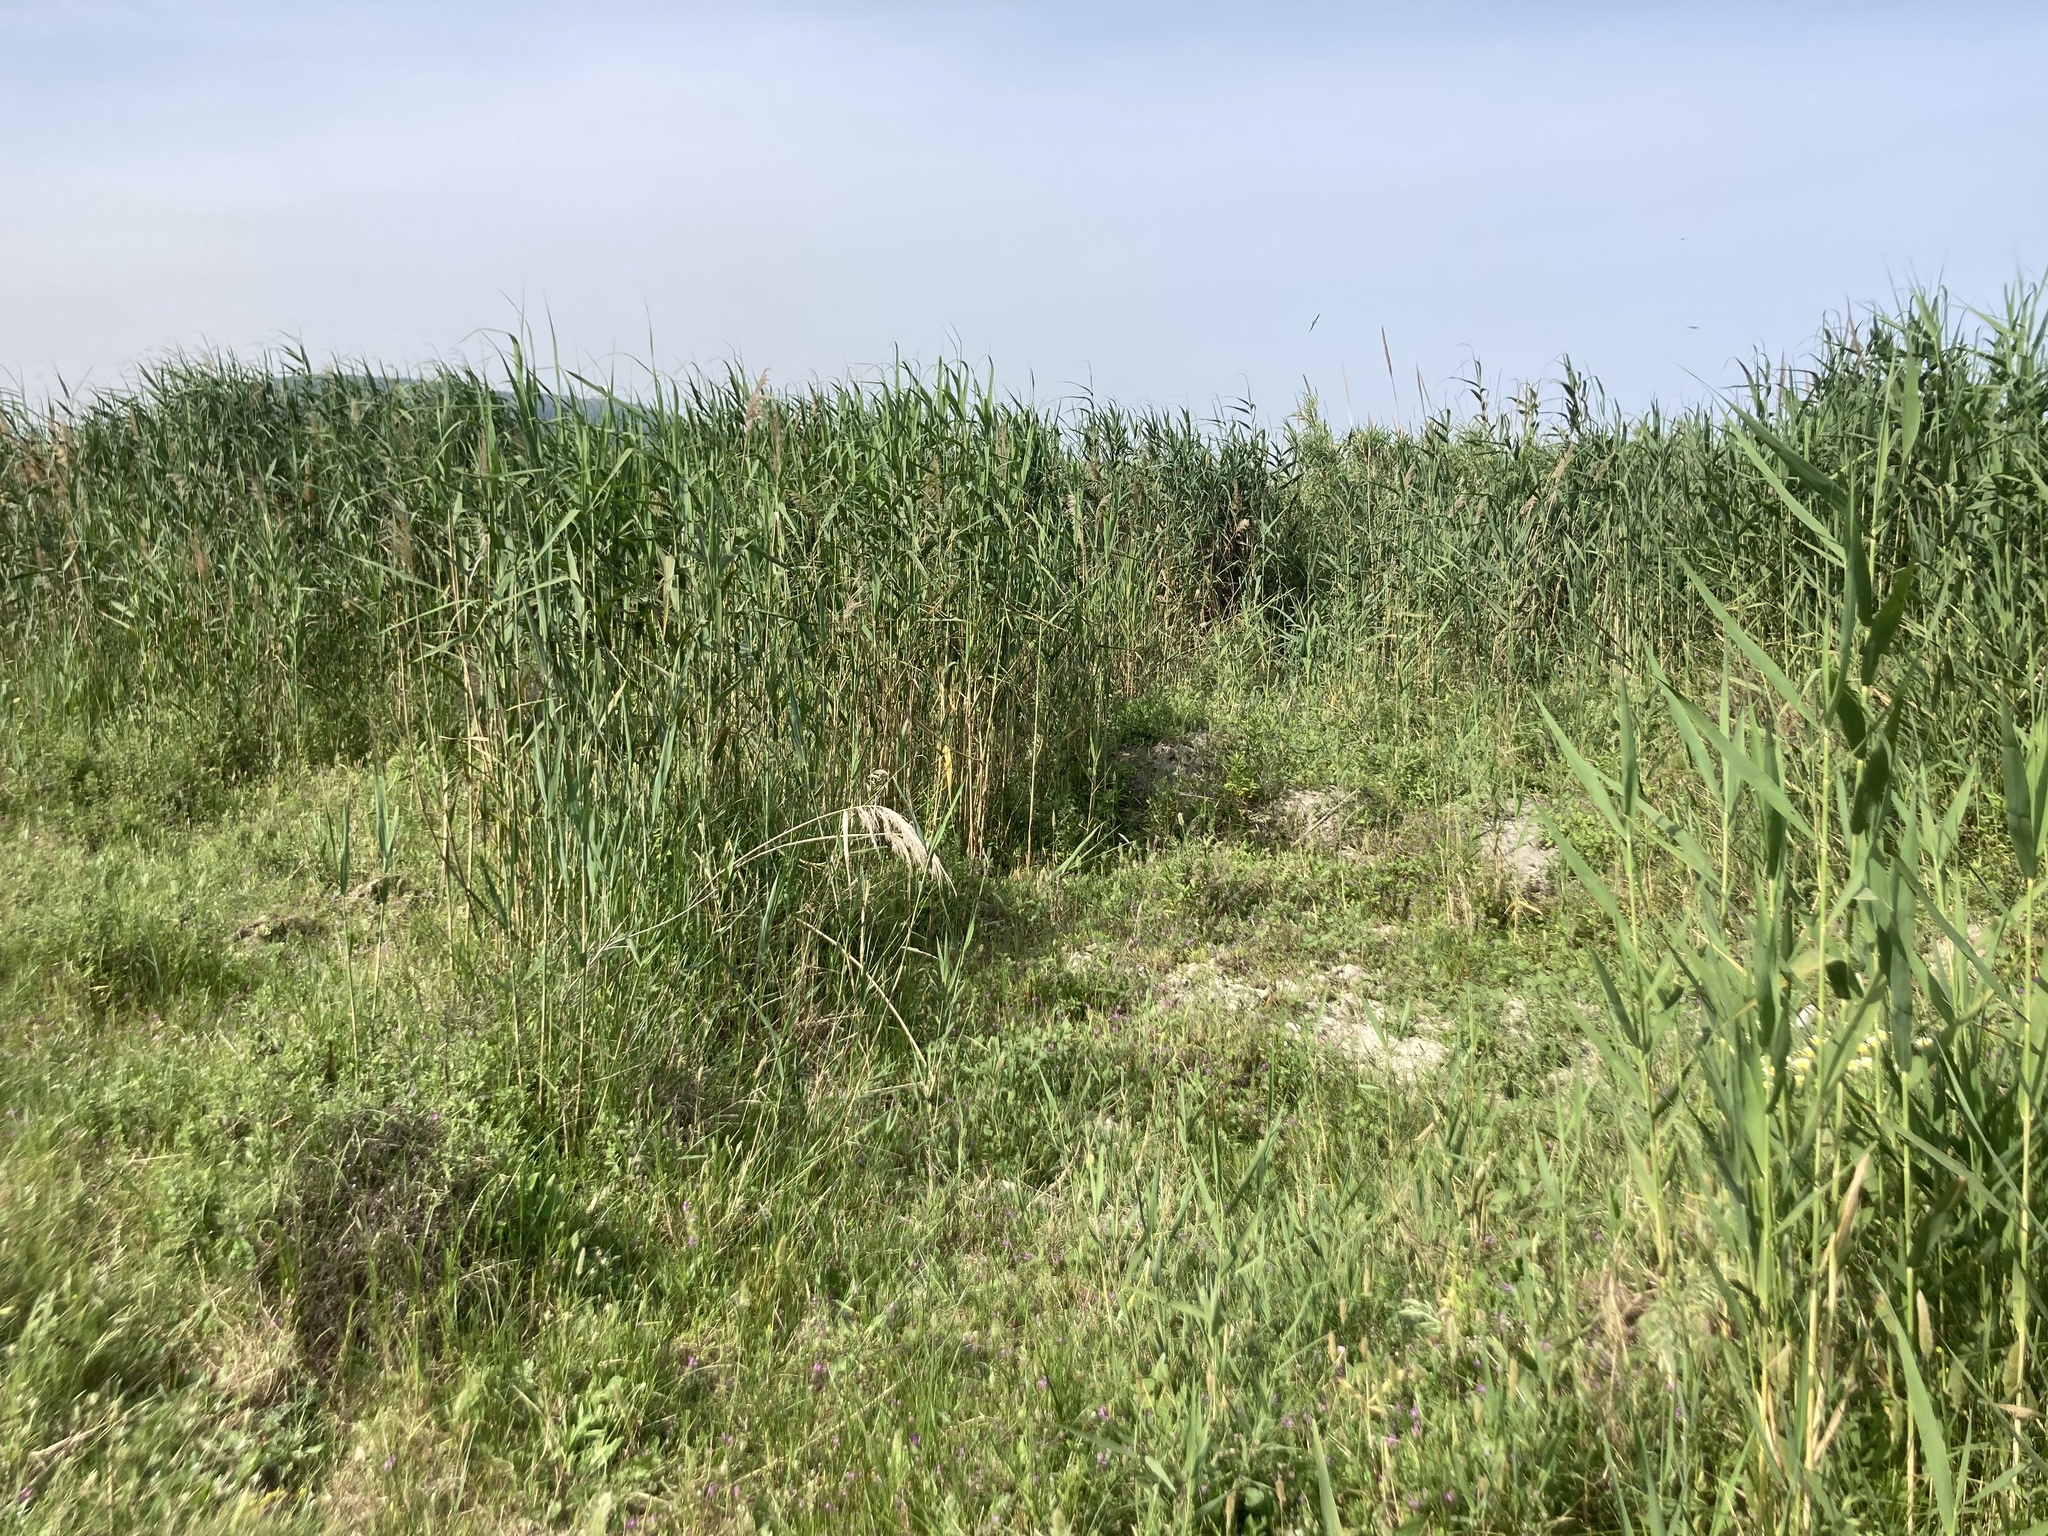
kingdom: Plantae
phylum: Tracheophyta
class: Liliopsida
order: Poales
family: Poaceae
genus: Arundo
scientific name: Arundo donax
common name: Giant reed
